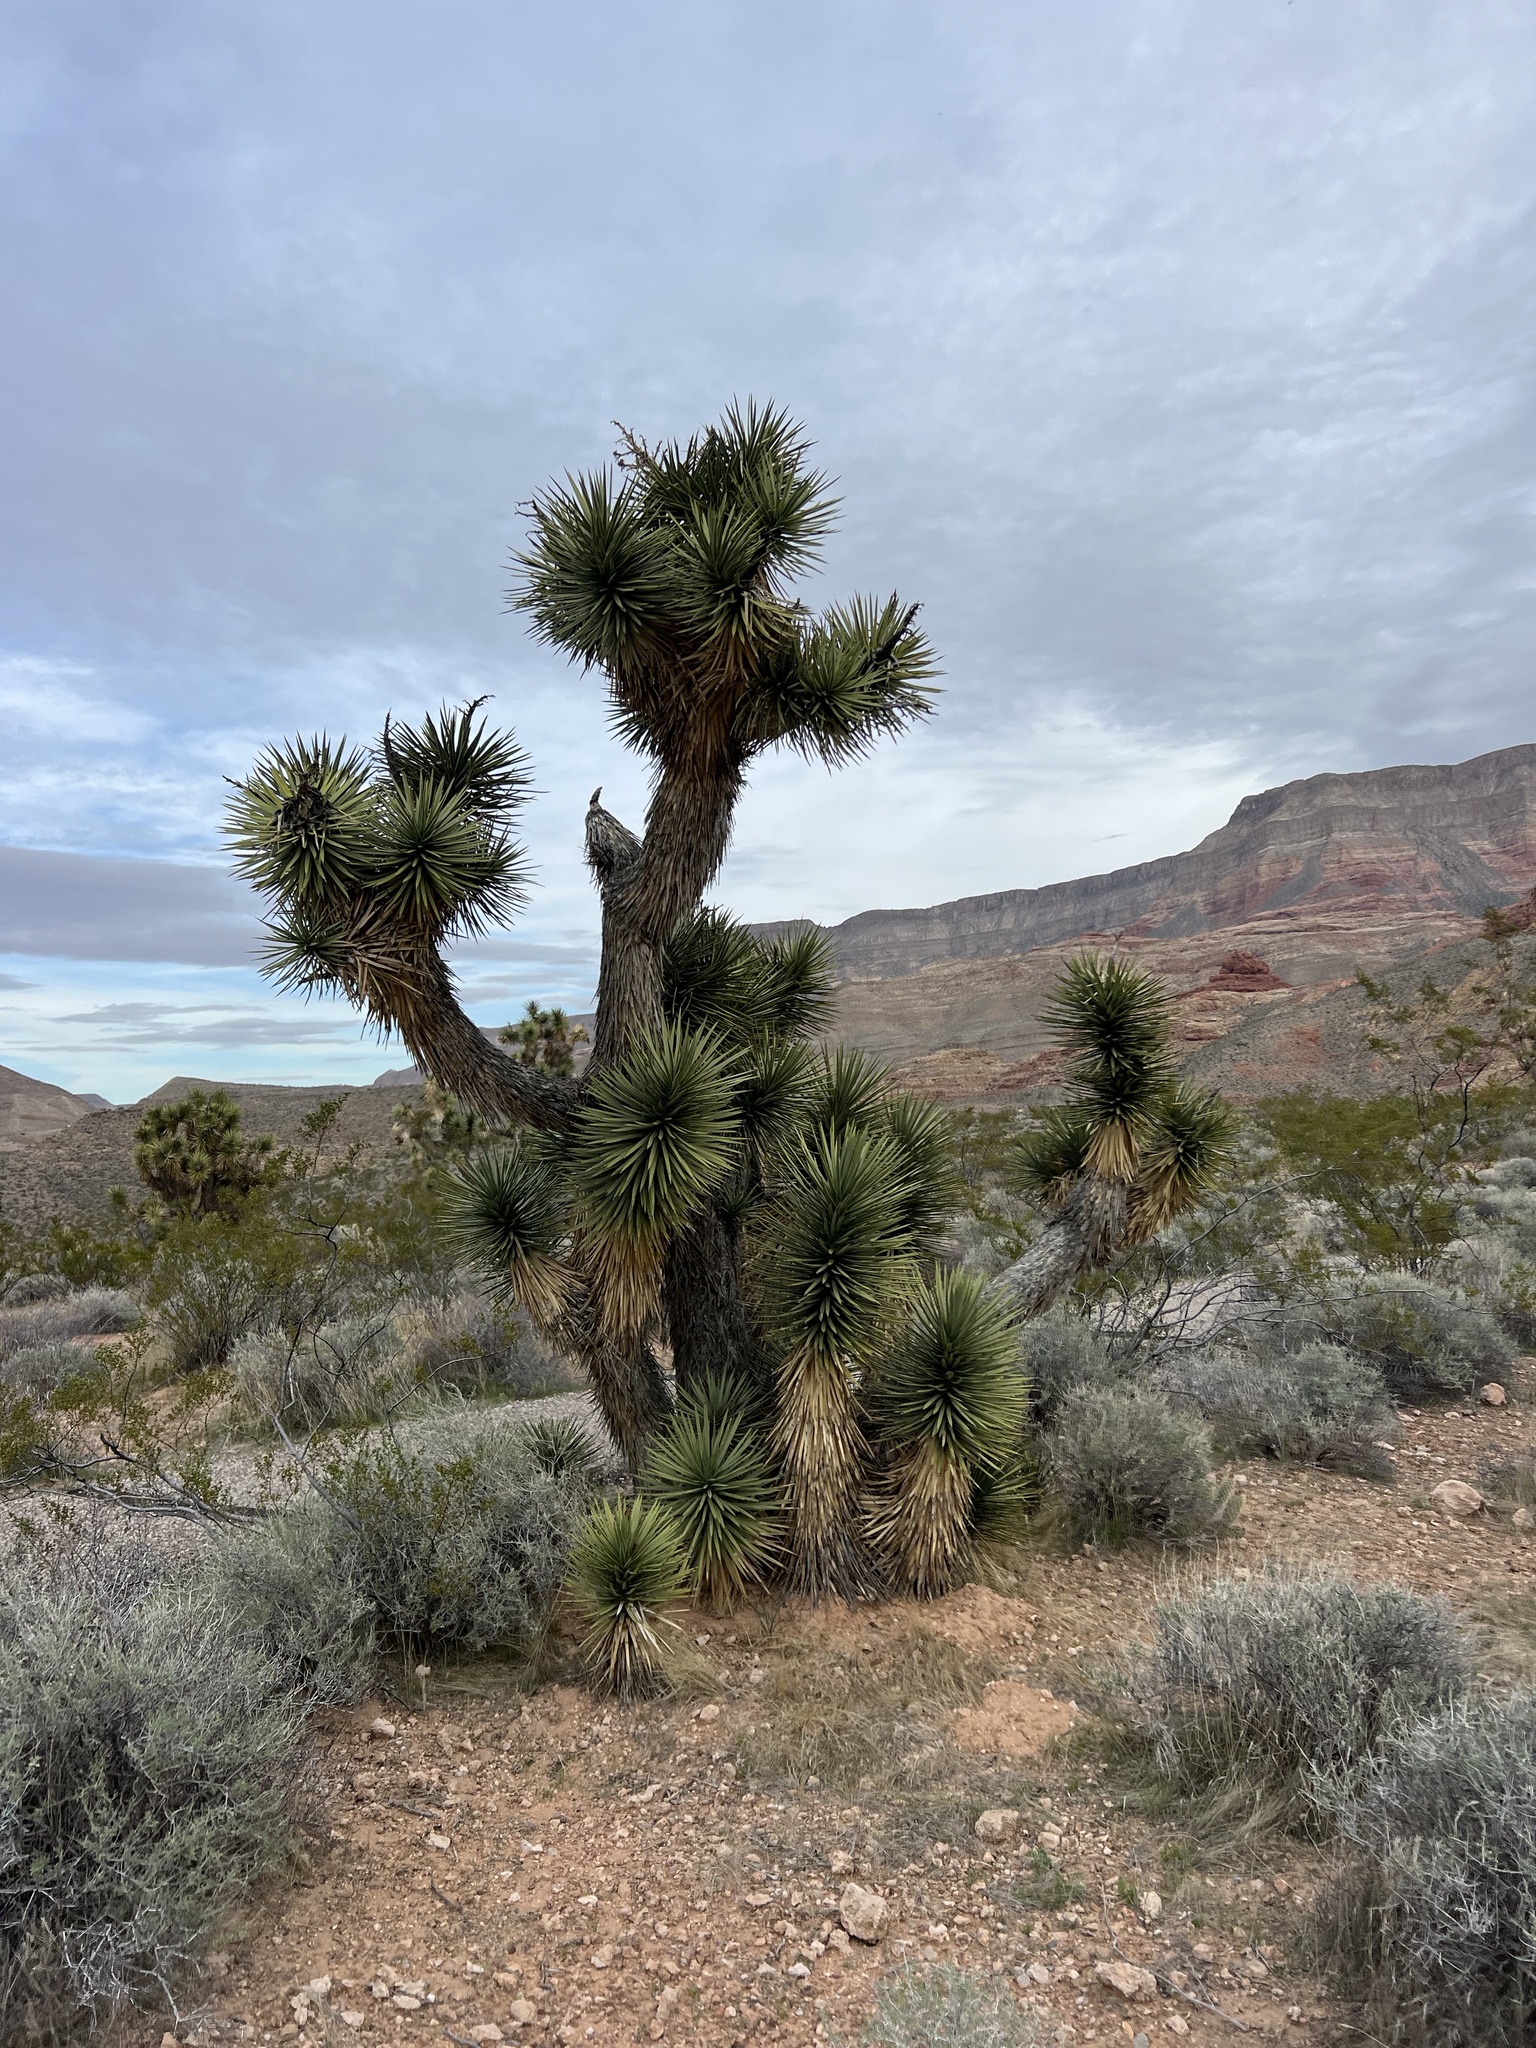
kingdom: Plantae
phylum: Tracheophyta
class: Liliopsida
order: Asparagales
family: Asparagaceae
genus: Yucca
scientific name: Yucca brevifolia
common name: Joshua tree
